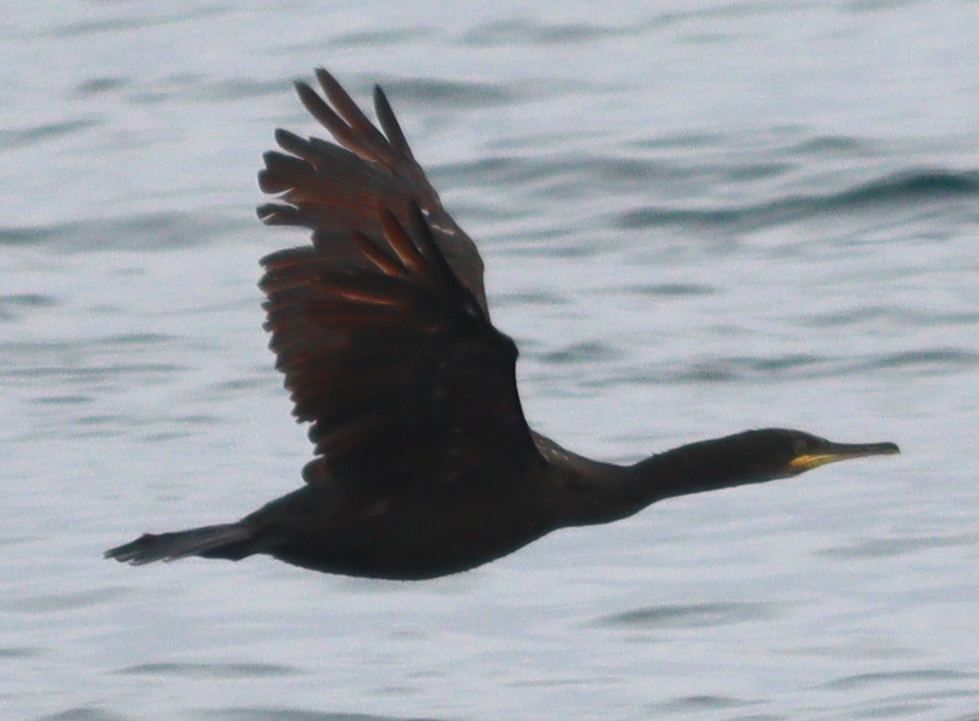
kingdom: Animalia
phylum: Chordata
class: Aves
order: Suliformes
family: Phalacrocoracidae
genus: Phalacrocorax
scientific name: Phalacrocorax aristotelis
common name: European shag
